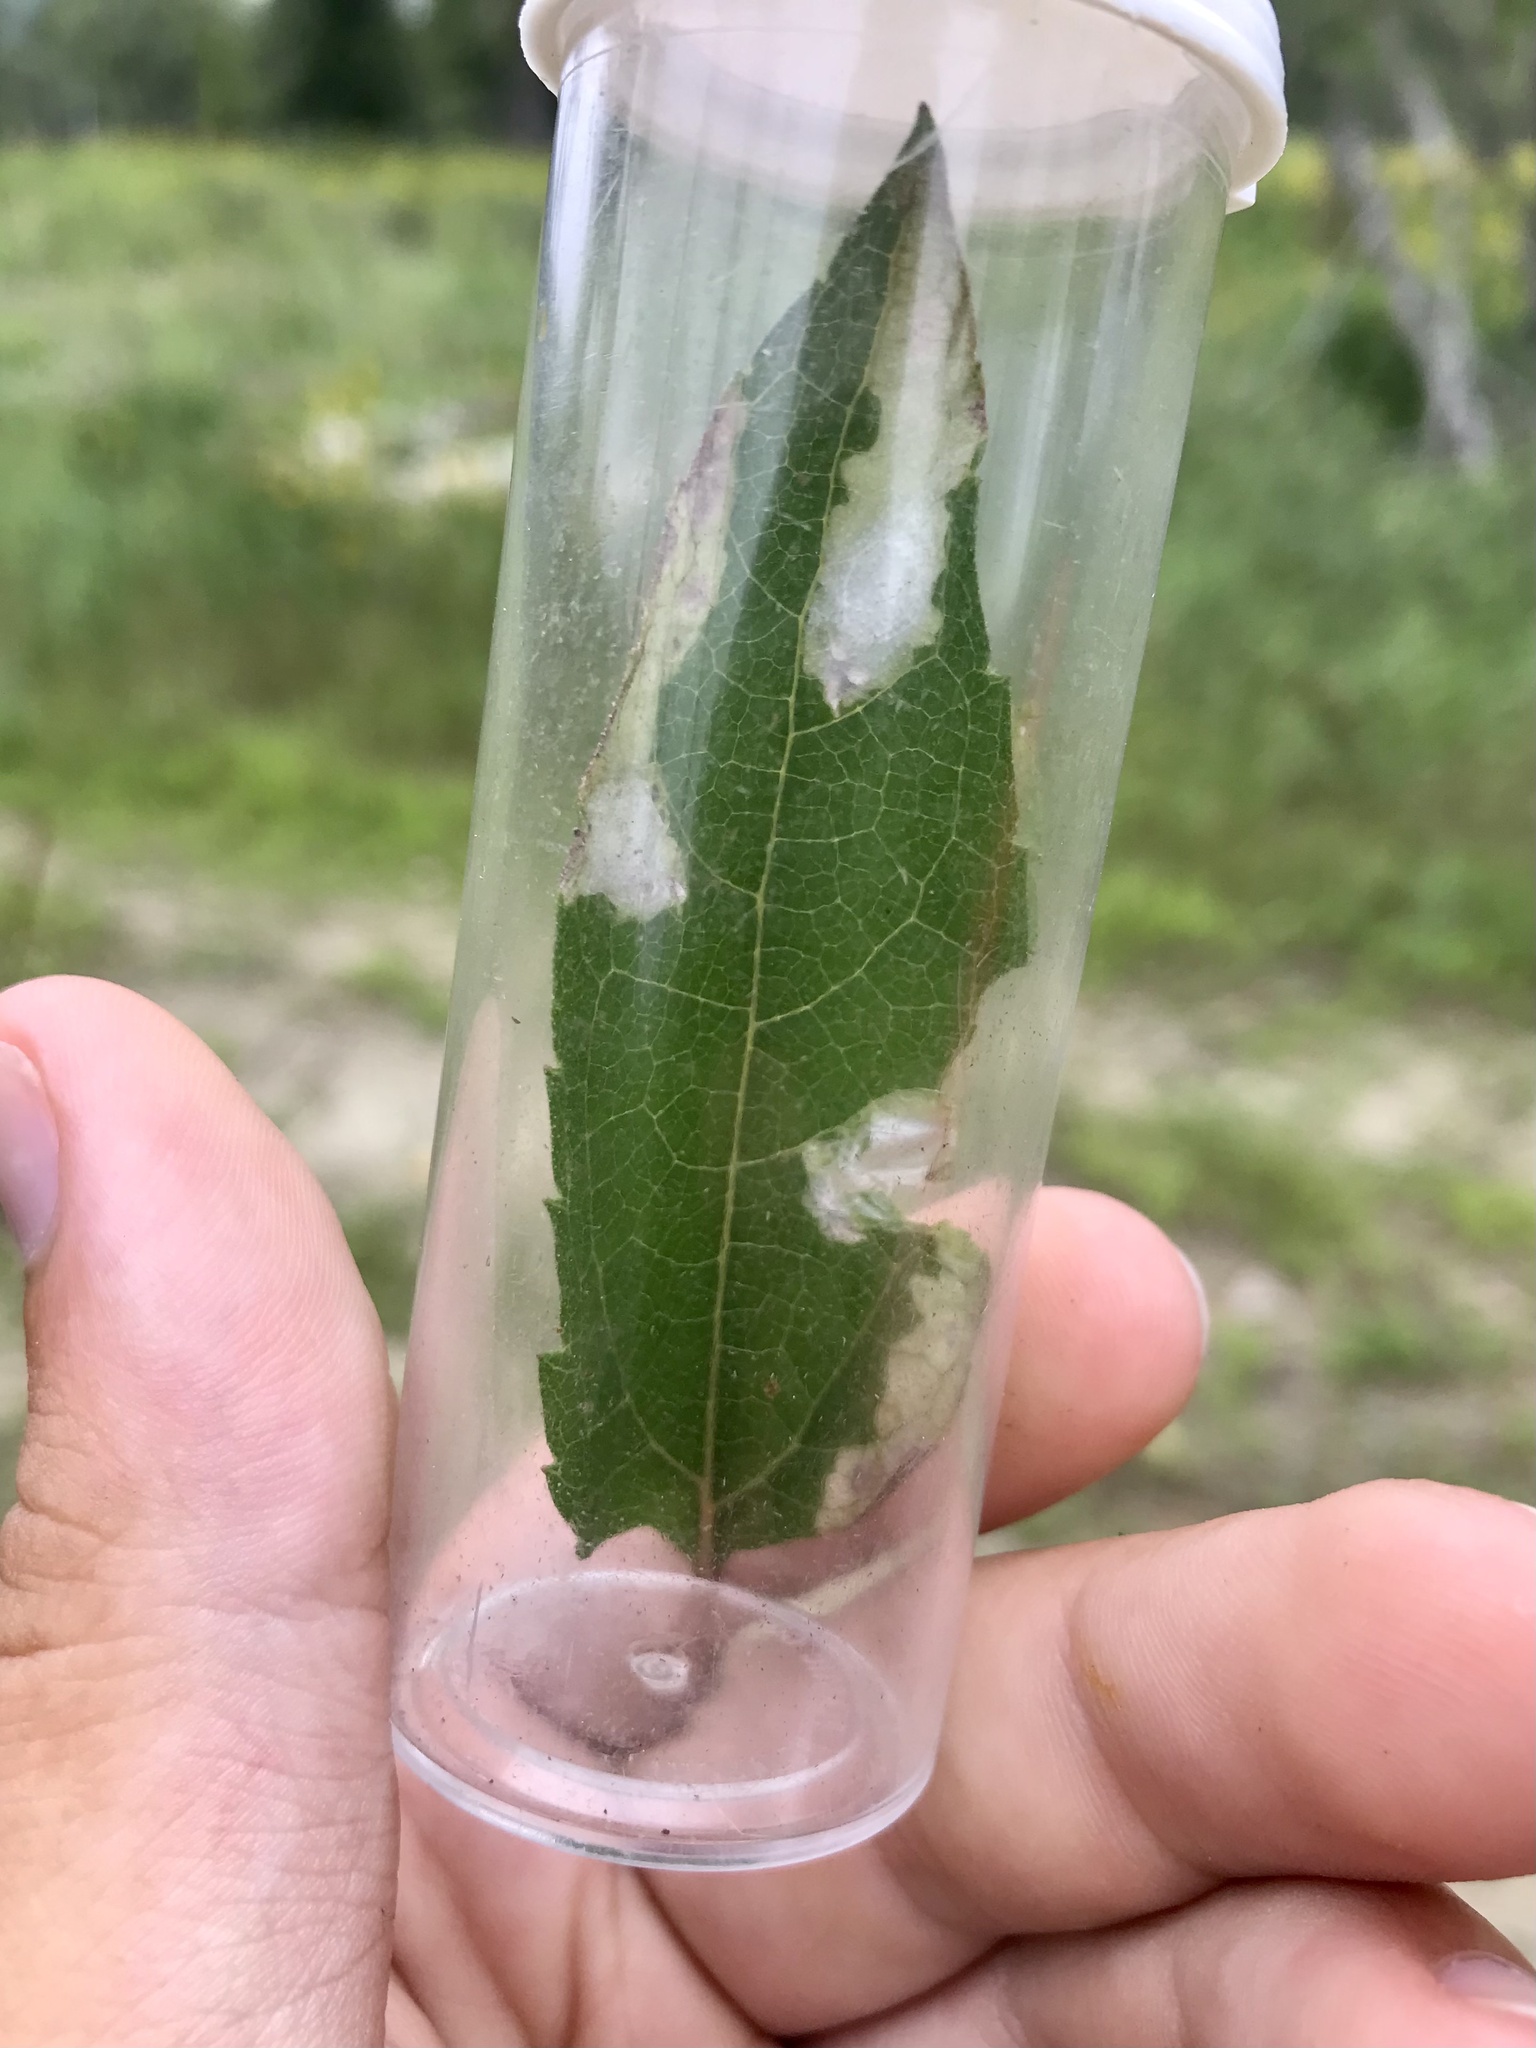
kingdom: Animalia
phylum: Arthropoda
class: Insecta
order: Lepidoptera
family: Tischeriidae
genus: Astrotischeria
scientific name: Astrotischeria heliopsisella
